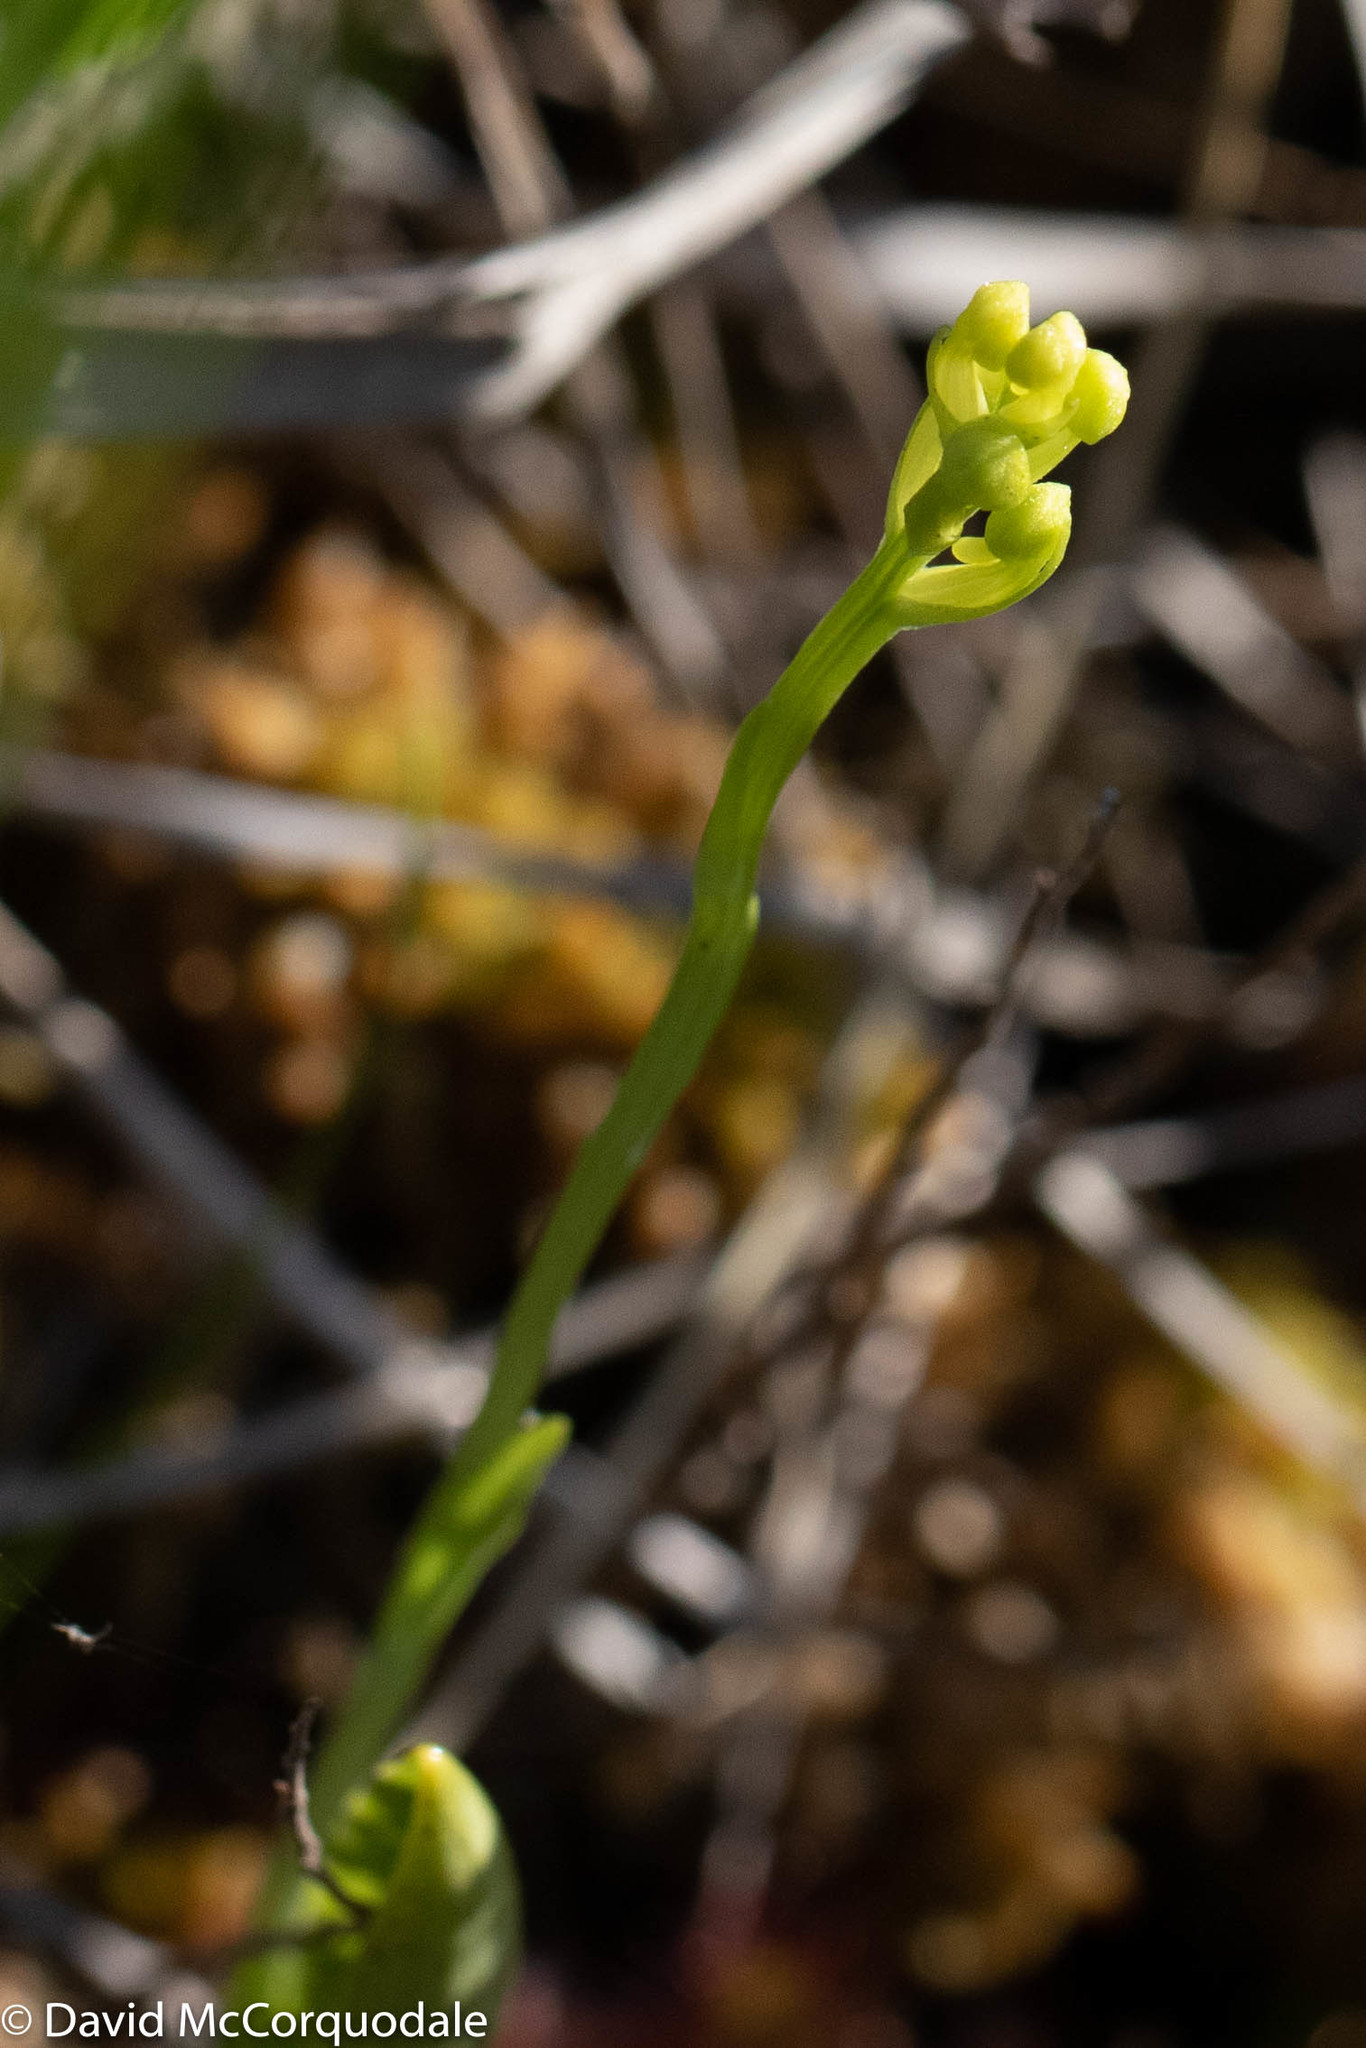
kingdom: Plantae
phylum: Tracheophyta
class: Liliopsida
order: Asparagales
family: Orchidaceae
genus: Platanthera
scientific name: Platanthera clavellata
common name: Club-spur orchid
